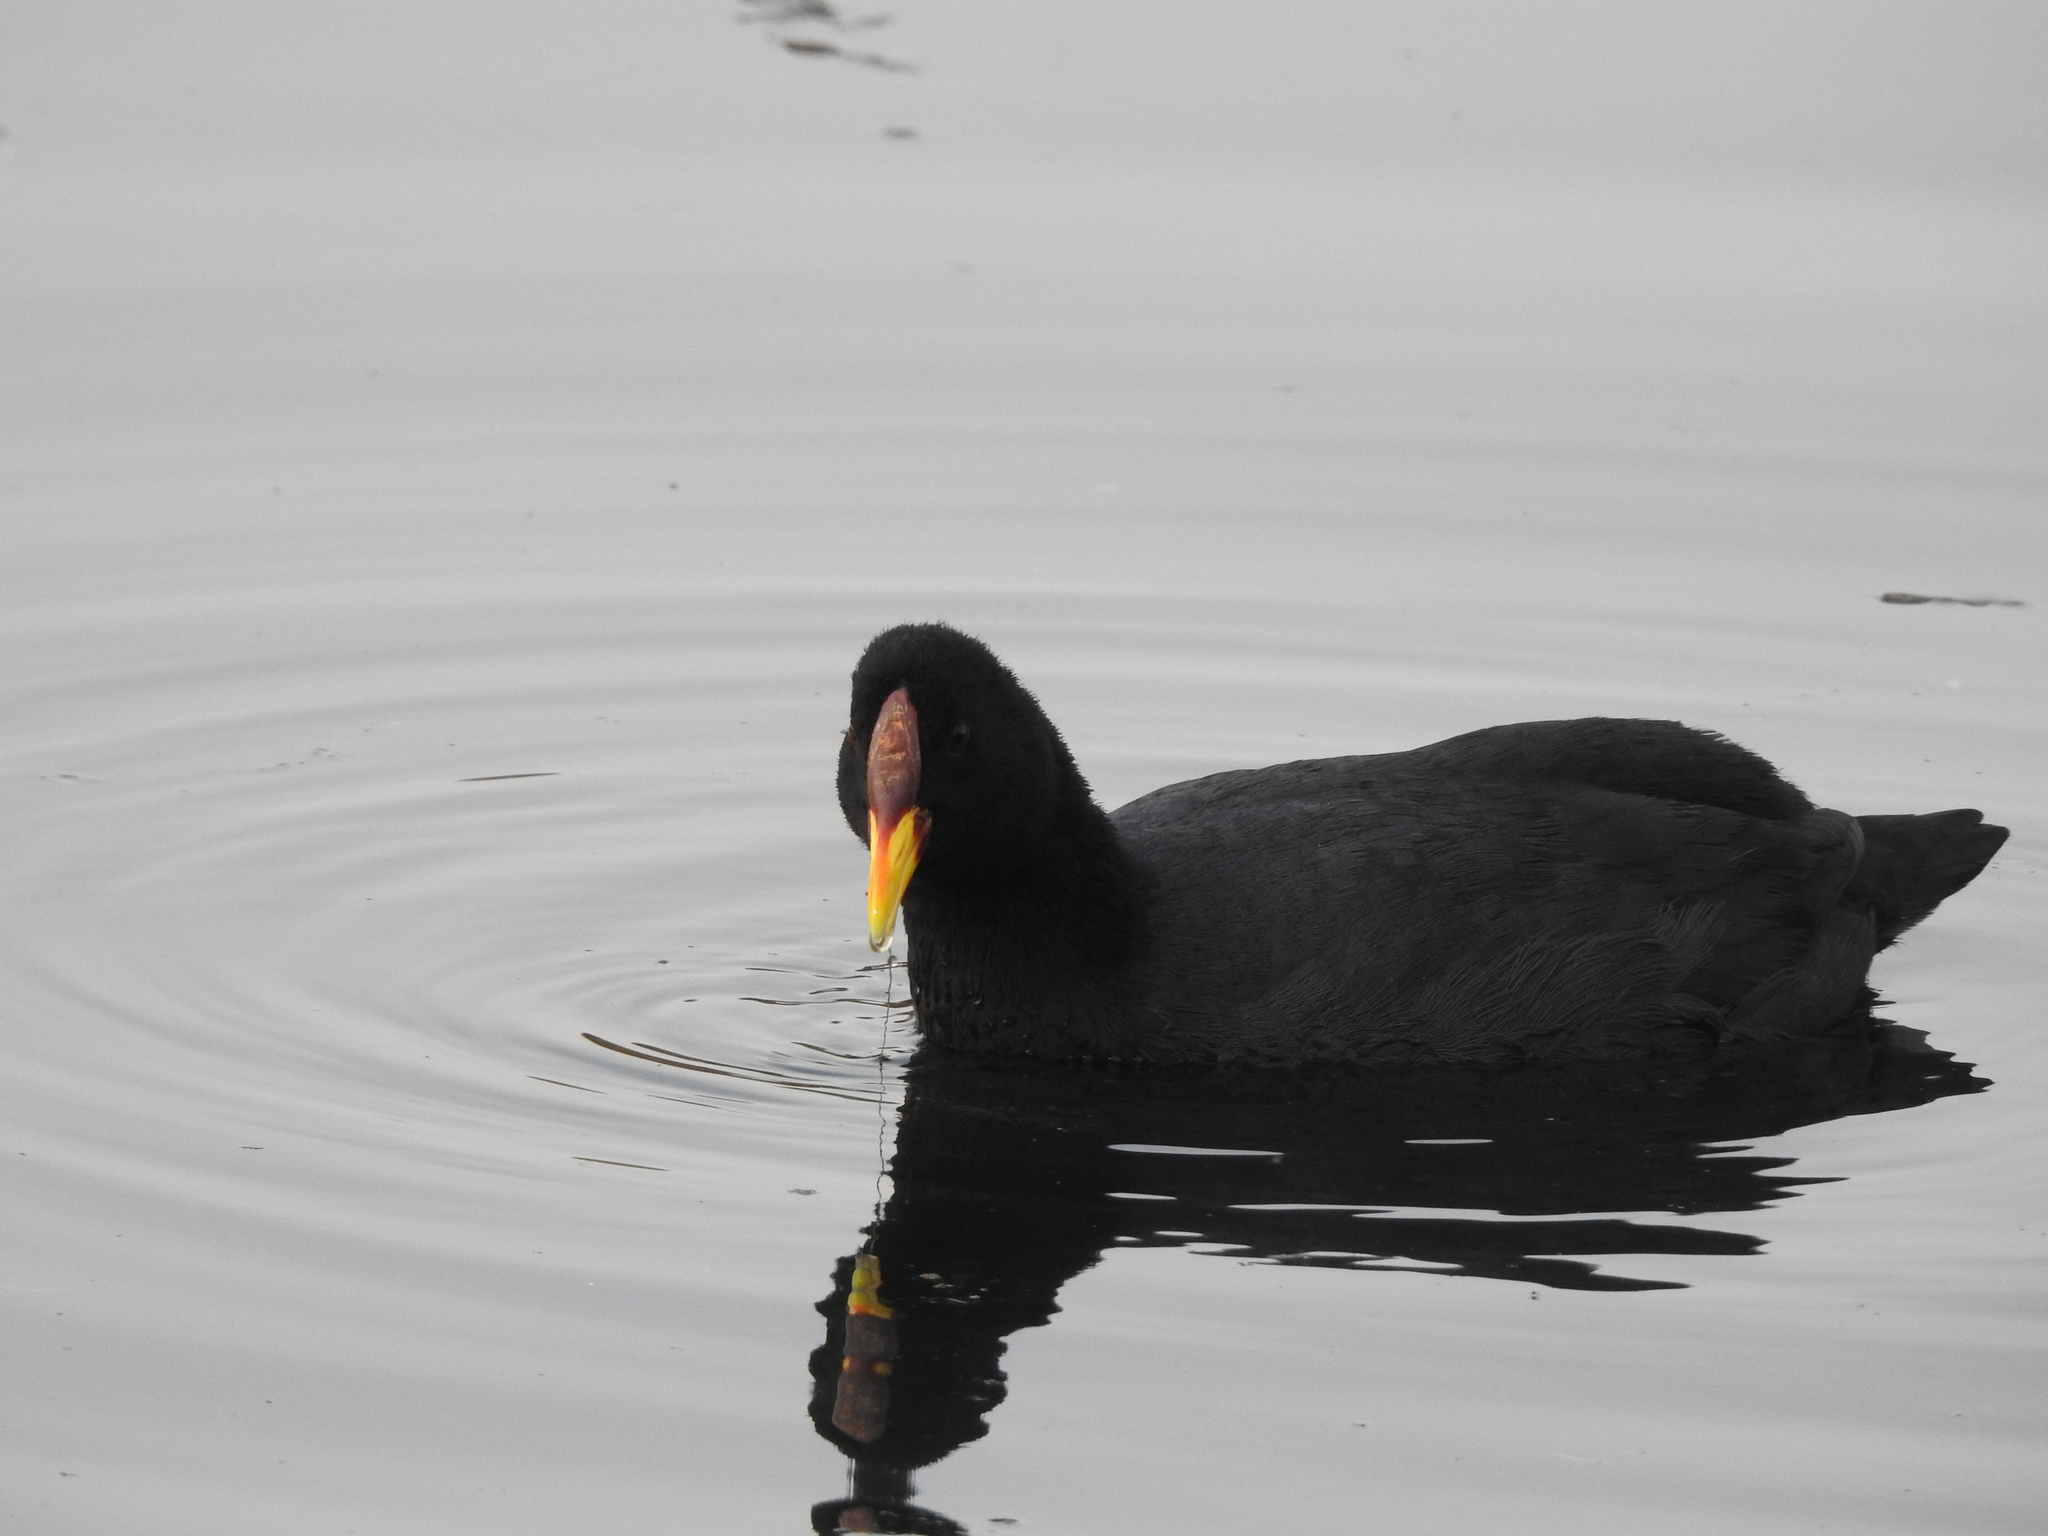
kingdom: Animalia
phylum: Chordata
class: Aves
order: Gruiformes
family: Rallidae
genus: Fulica
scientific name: Fulica rufifrons
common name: Red-fronted coot
